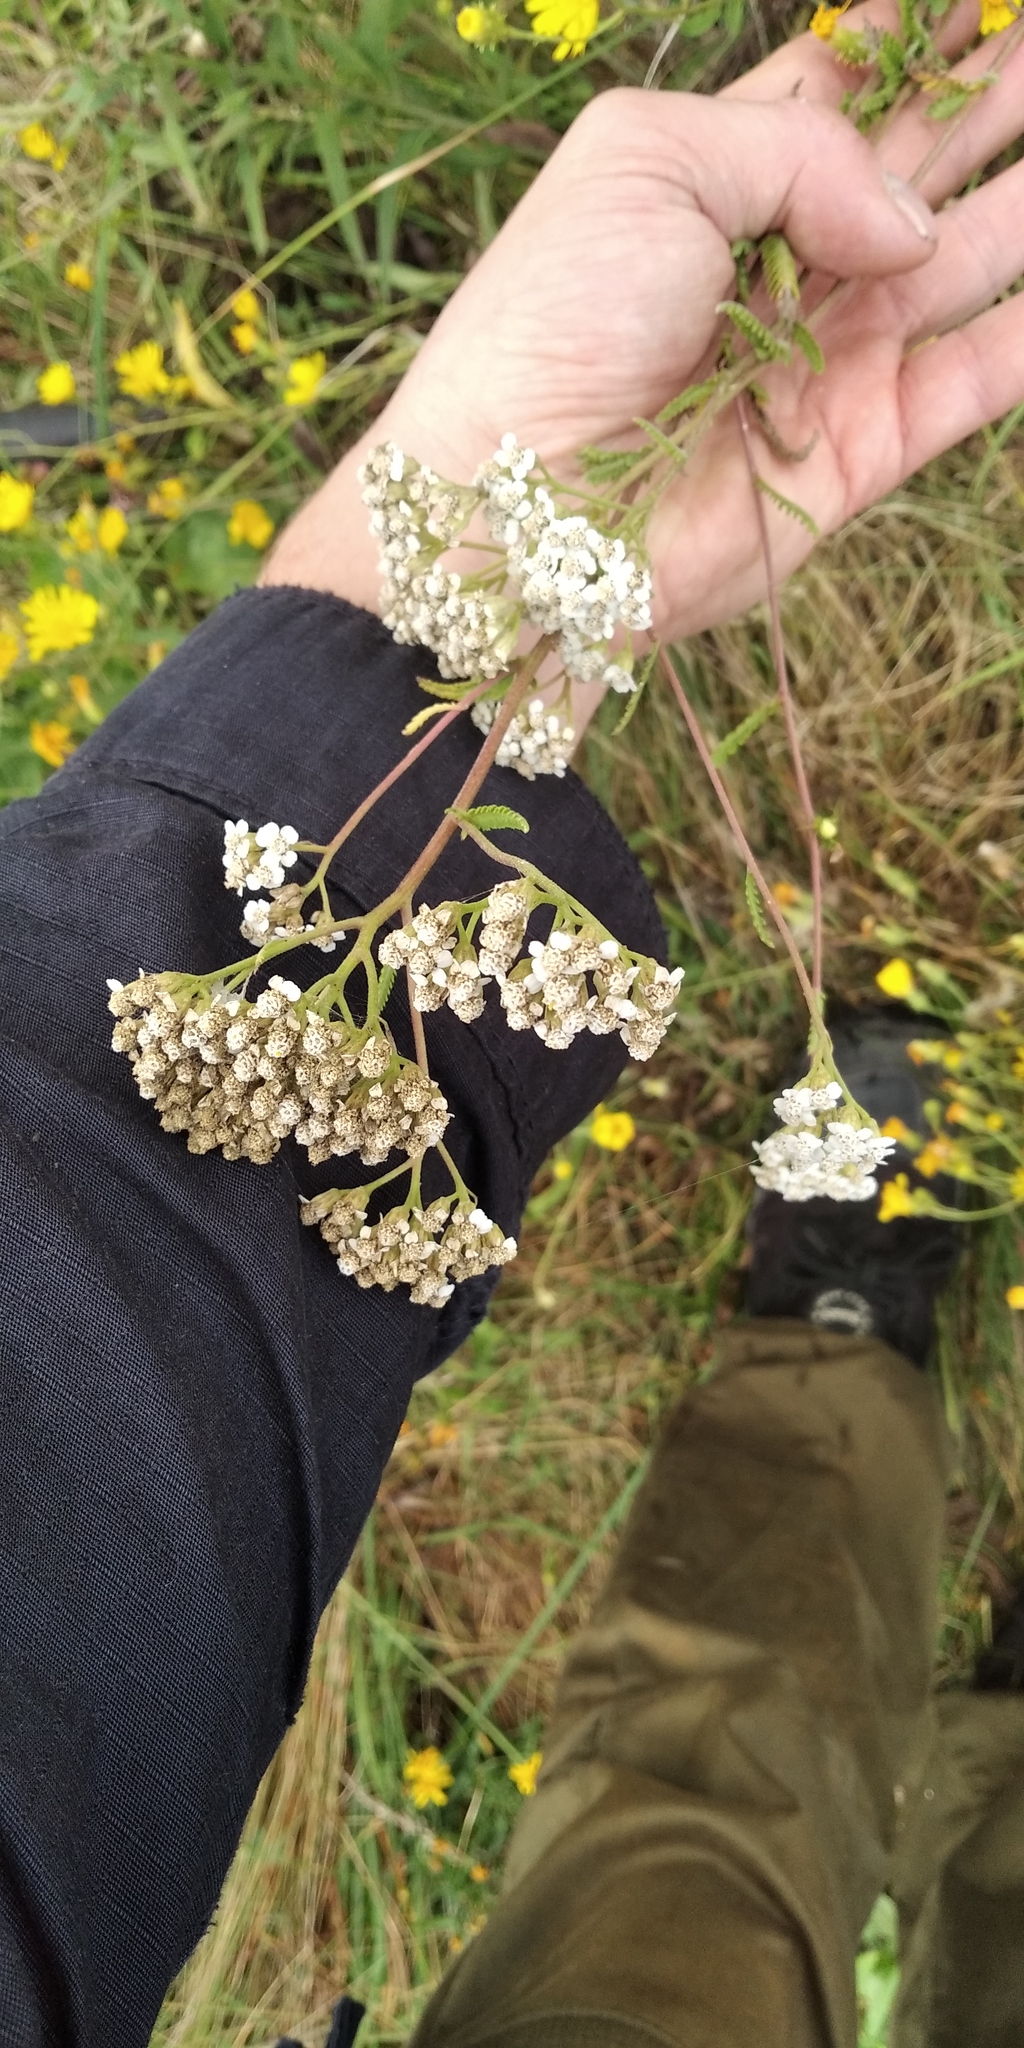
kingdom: Plantae
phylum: Tracheophyta
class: Magnoliopsida
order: Asterales
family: Asteraceae
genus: Achillea
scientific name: Achillea collina
